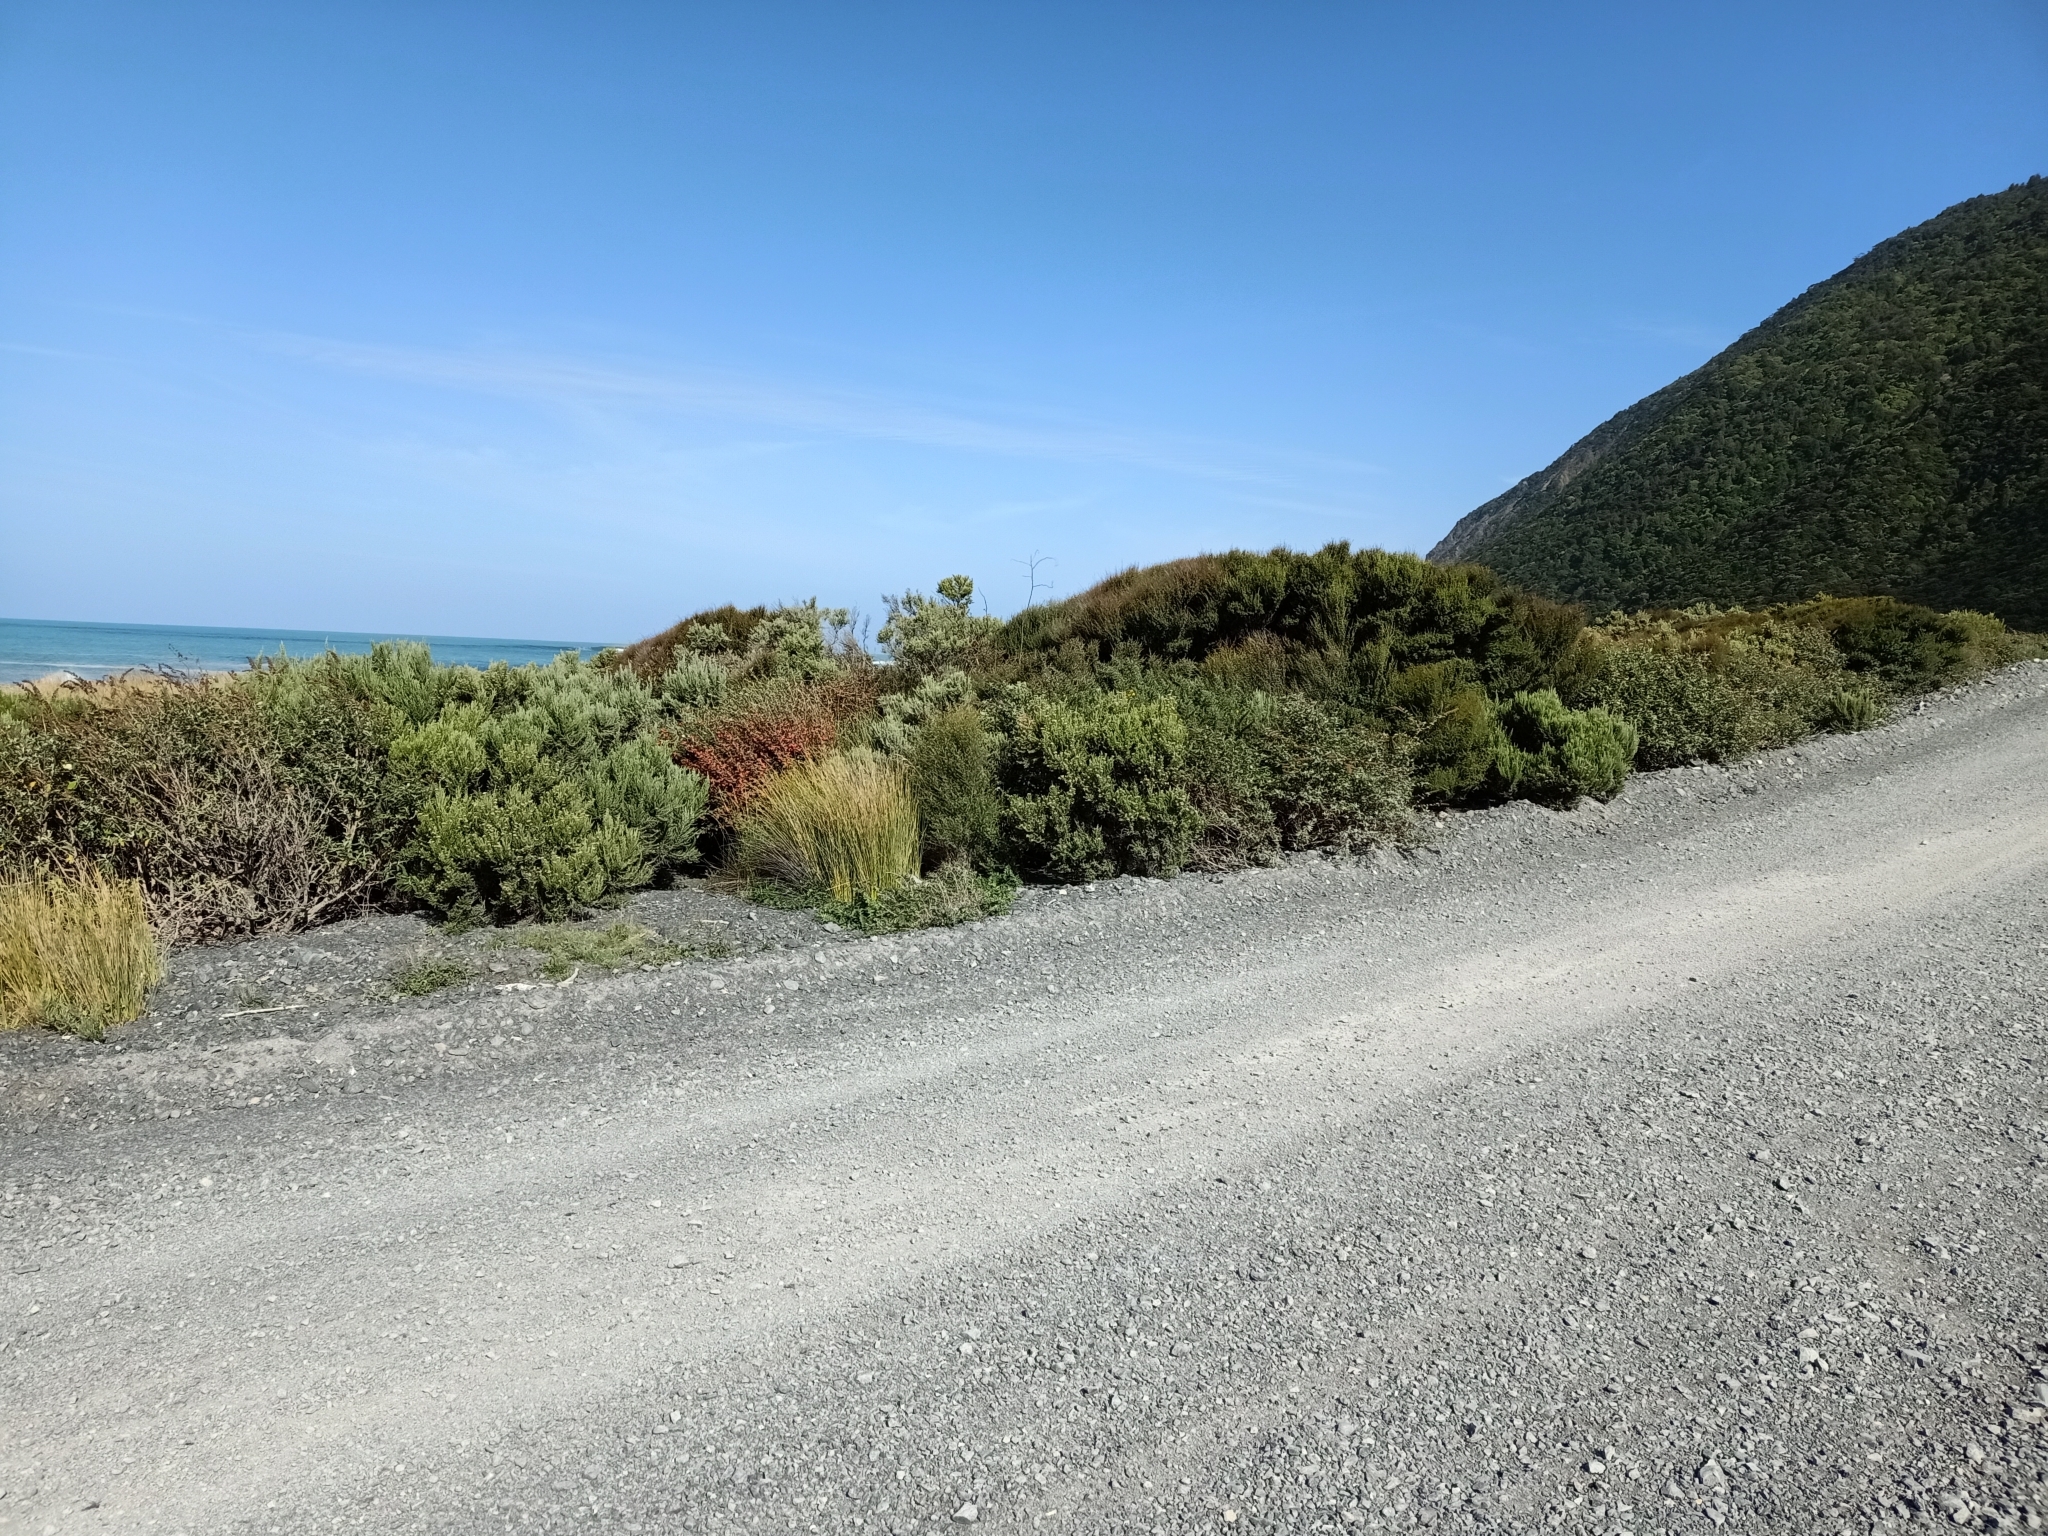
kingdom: Plantae
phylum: Tracheophyta
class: Magnoliopsida
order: Rosales
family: Rosaceae
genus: Cotoneaster
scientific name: Cotoneaster franchetii
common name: Franchet's cotoneaster
